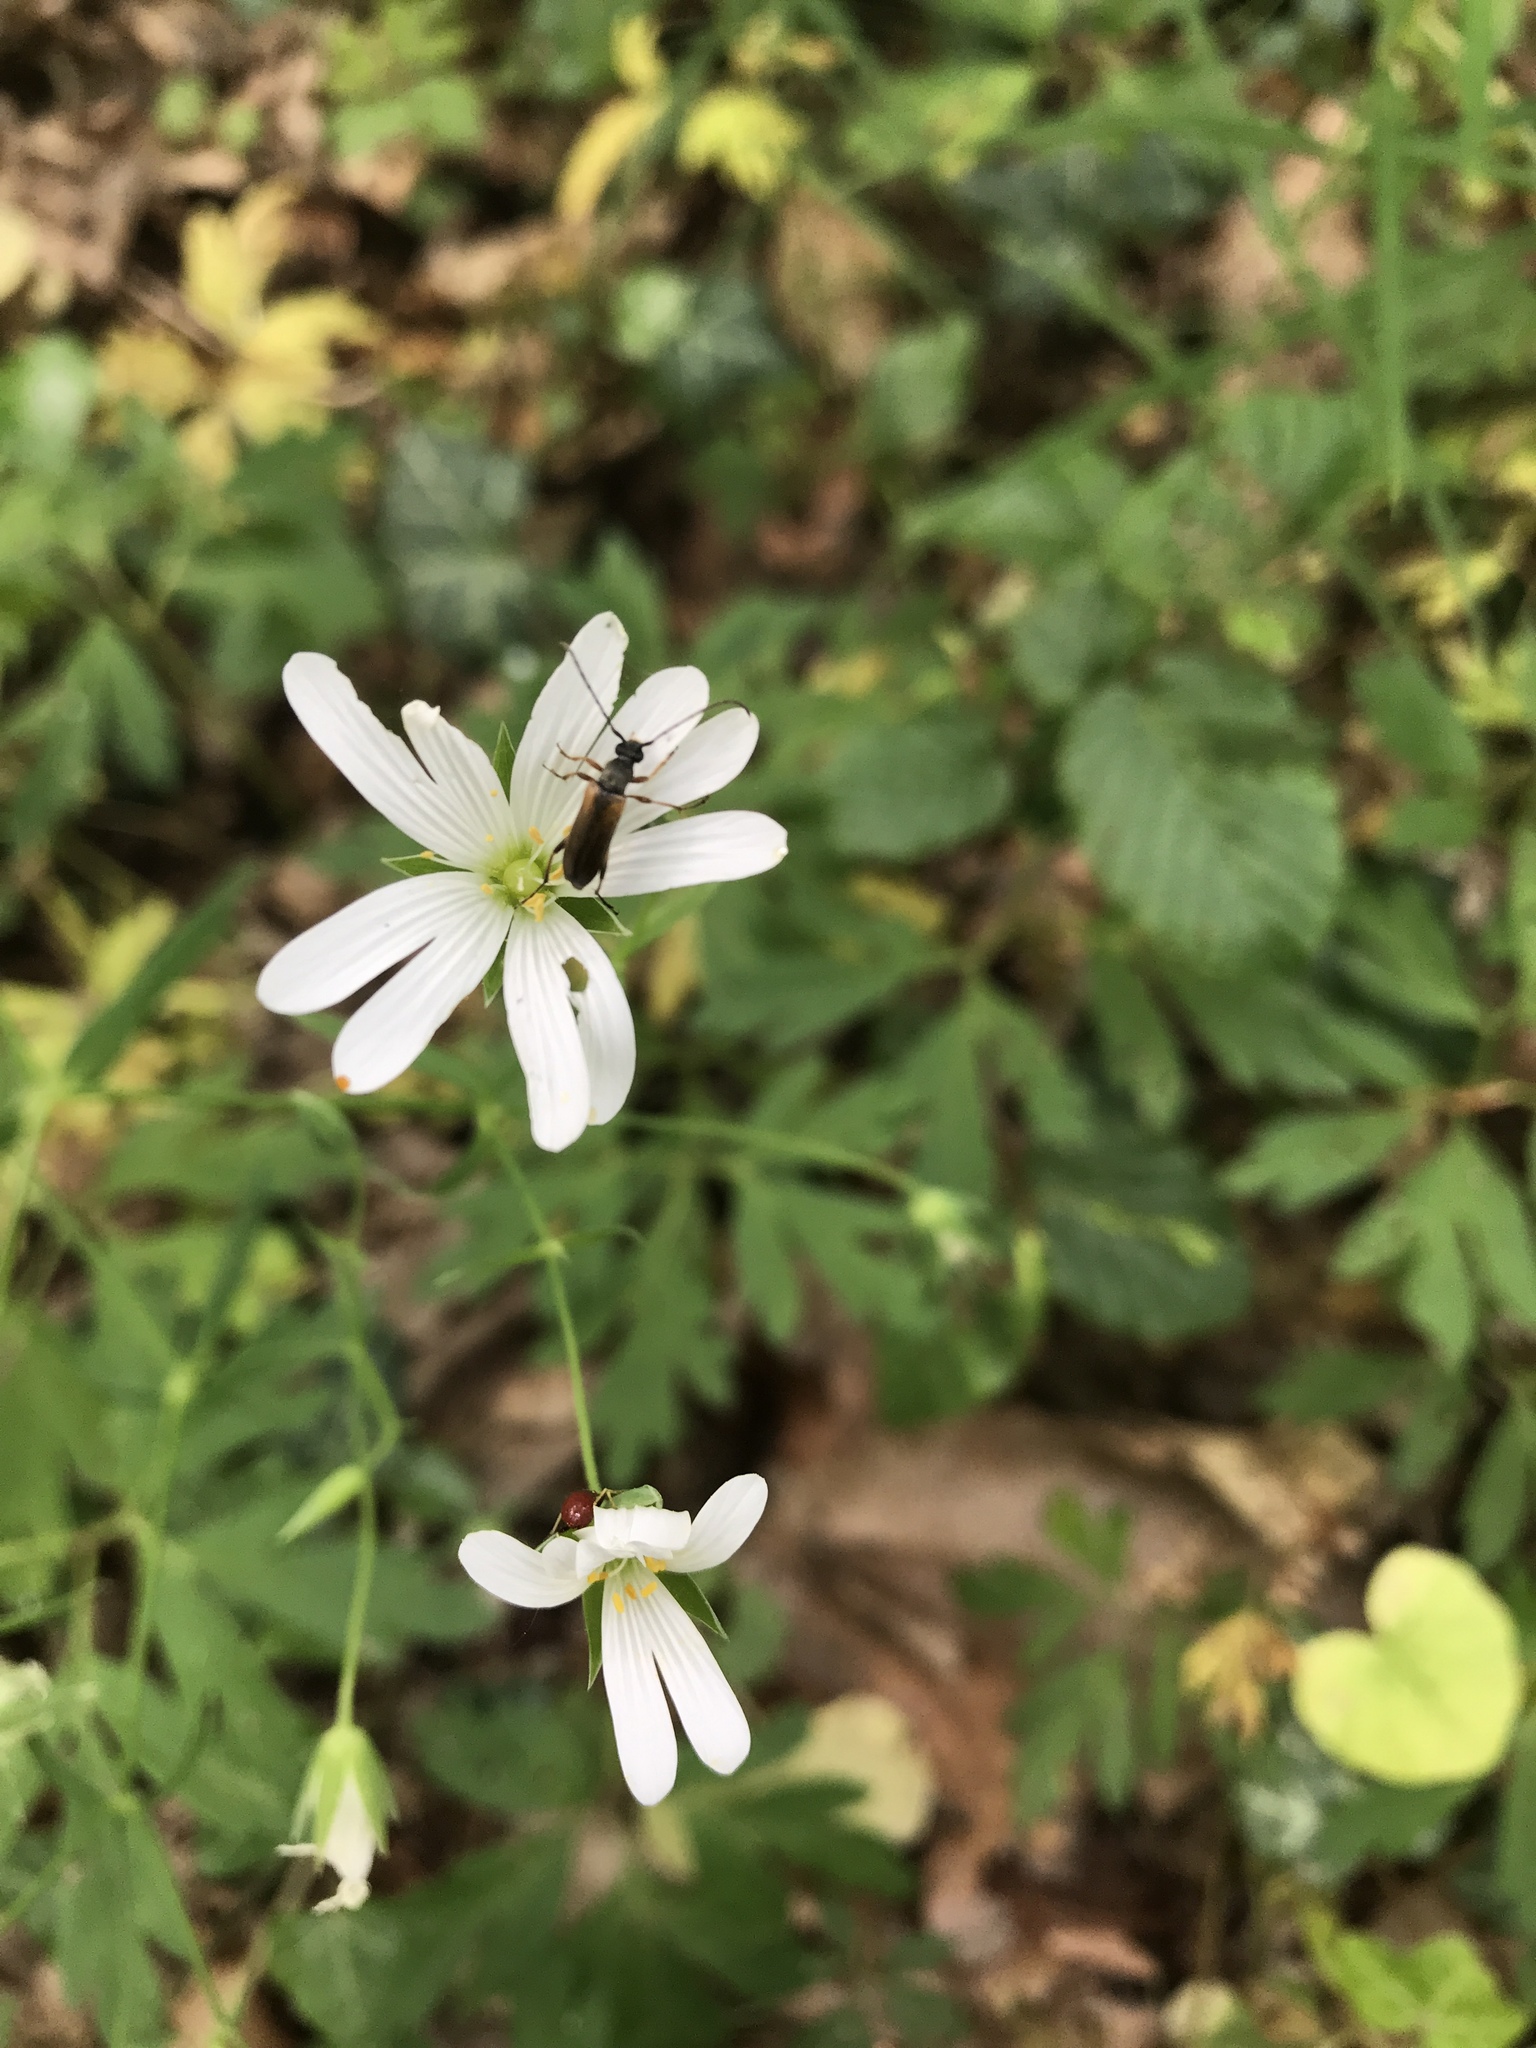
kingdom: Animalia
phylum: Arthropoda
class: Insecta
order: Coleoptera
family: Cerambycidae
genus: Alosterna
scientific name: Alosterna tabacicolor
